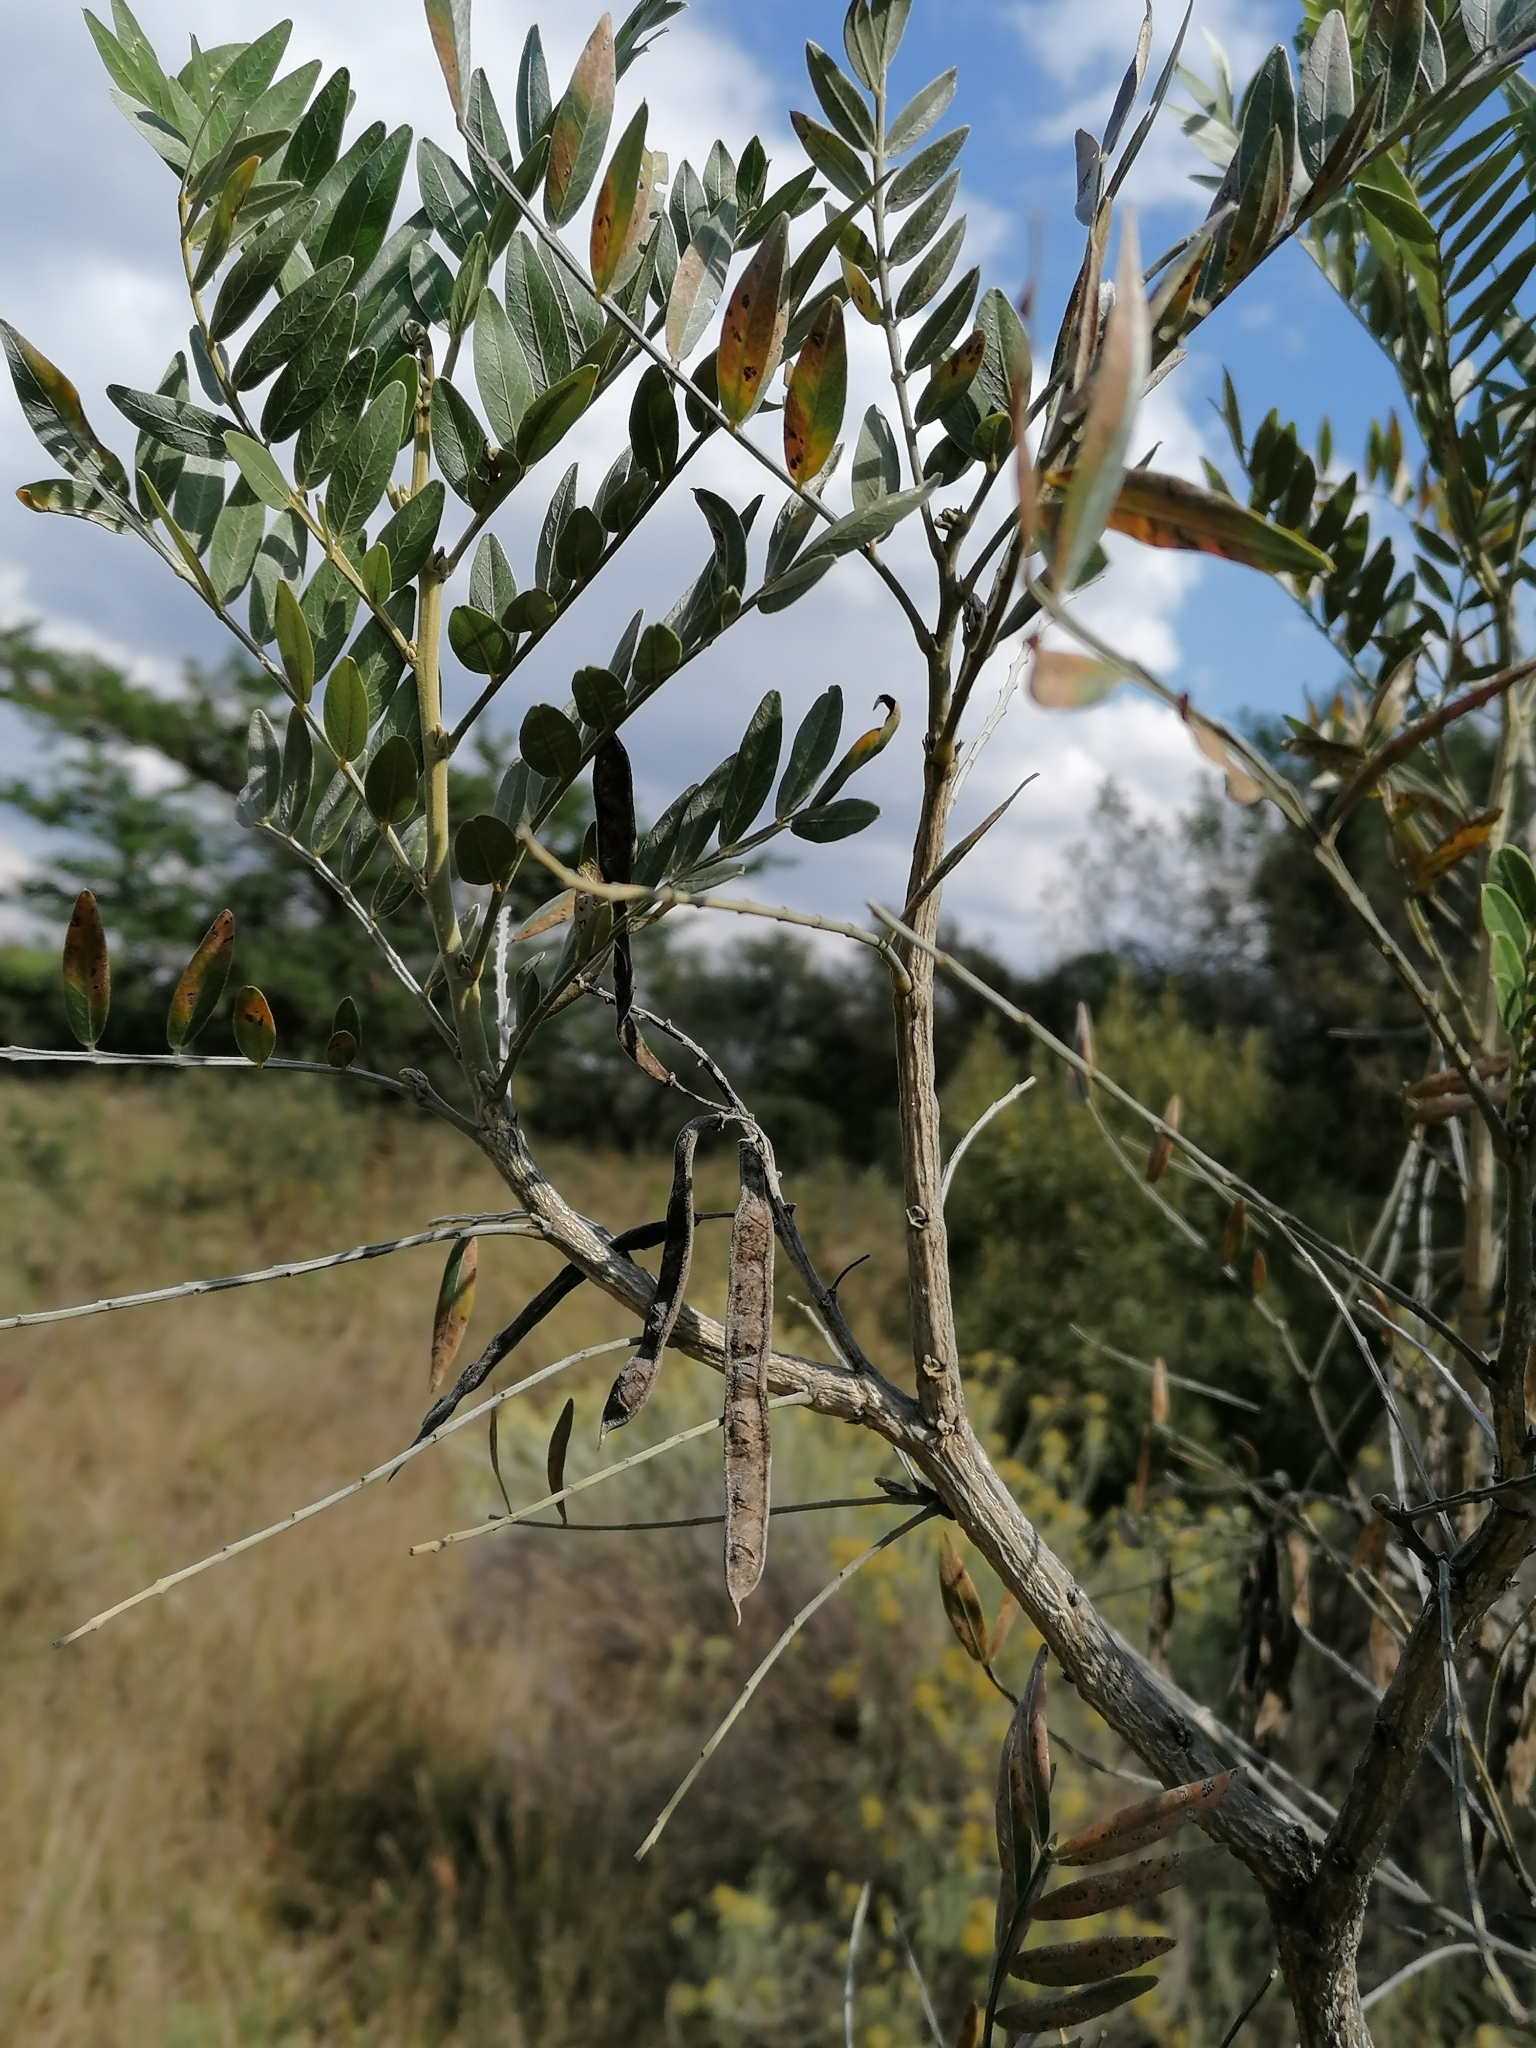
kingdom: Plantae
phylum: Tracheophyta
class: Magnoliopsida
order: Fabales
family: Fabaceae
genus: Mundulea
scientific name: Mundulea sericea
